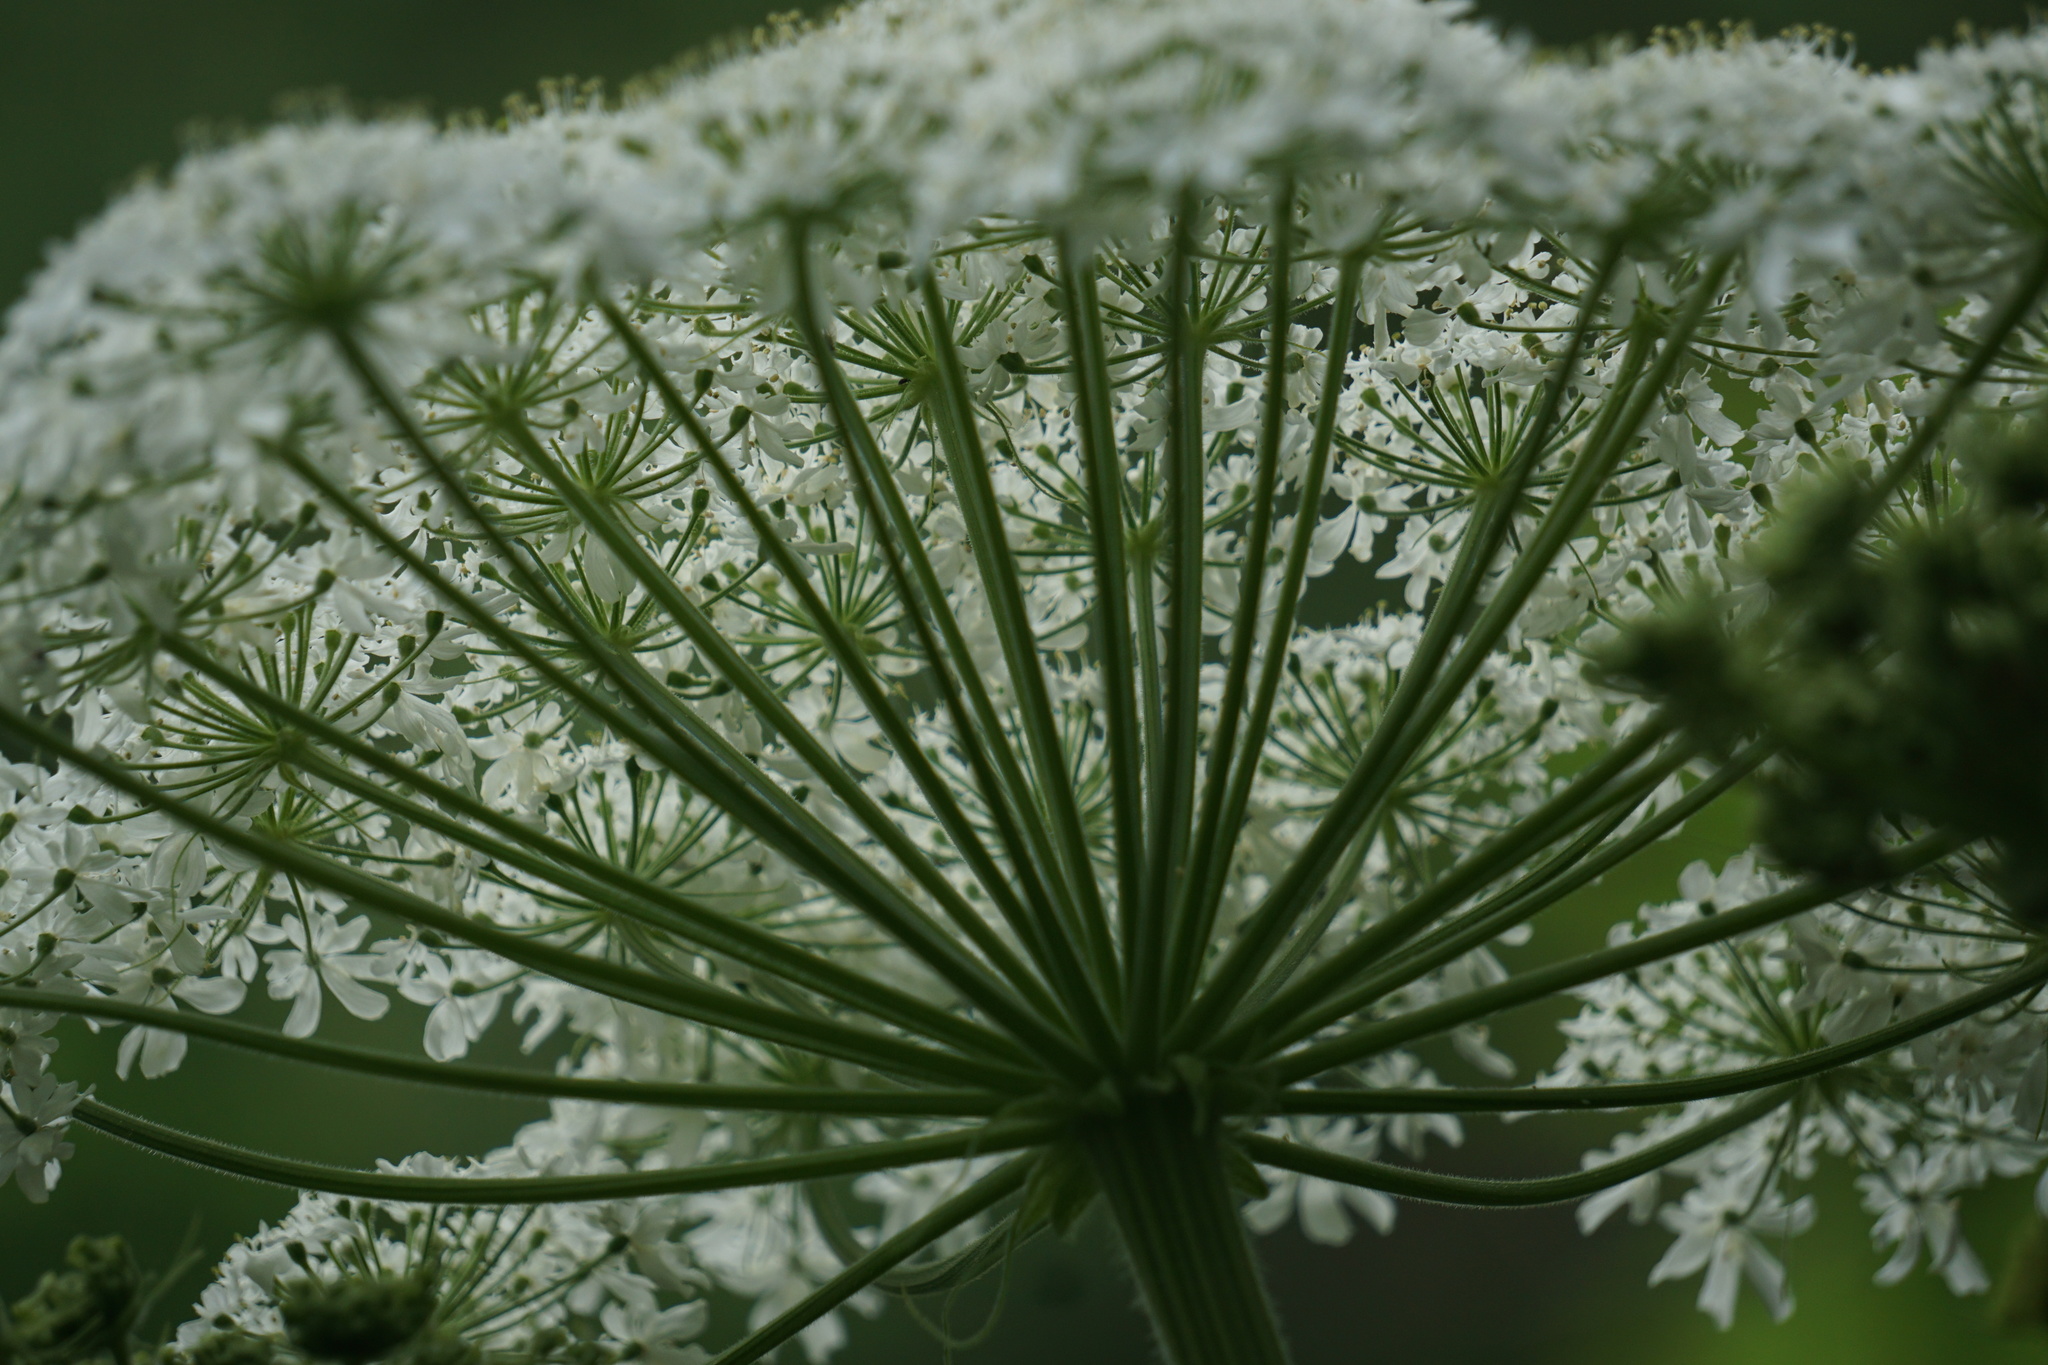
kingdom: Plantae
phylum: Tracheophyta
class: Magnoliopsida
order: Apiales
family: Apiaceae
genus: Heracleum
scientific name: Heracleum maximum
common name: American cow parsnip
